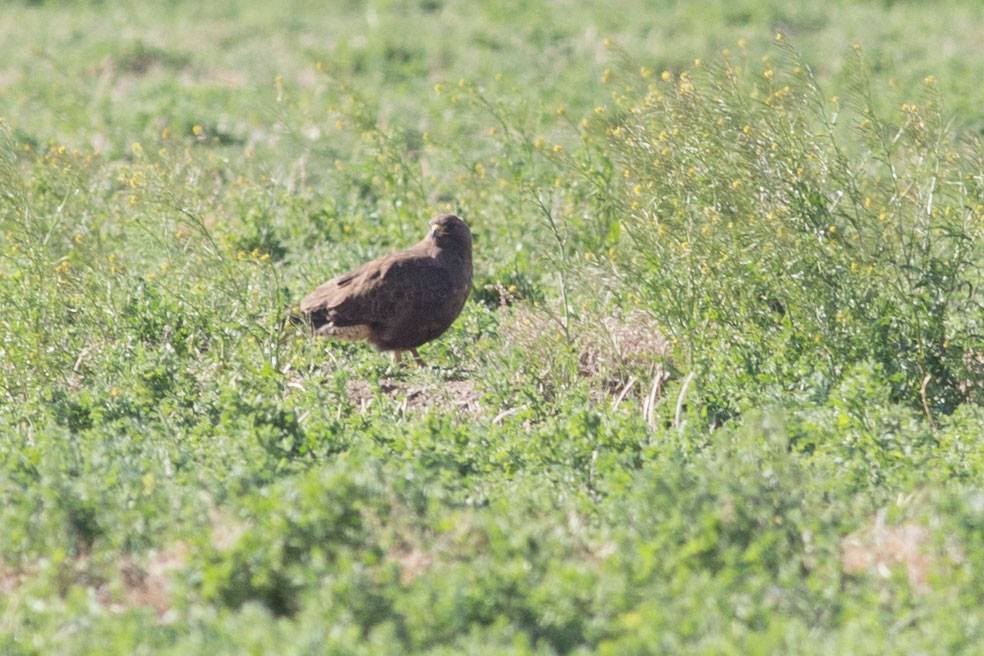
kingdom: Animalia
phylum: Chordata
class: Aves
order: Accipitriformes
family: Accipitridae
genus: Buteo
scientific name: Buteo swainsoni
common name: Swainson's hawk
